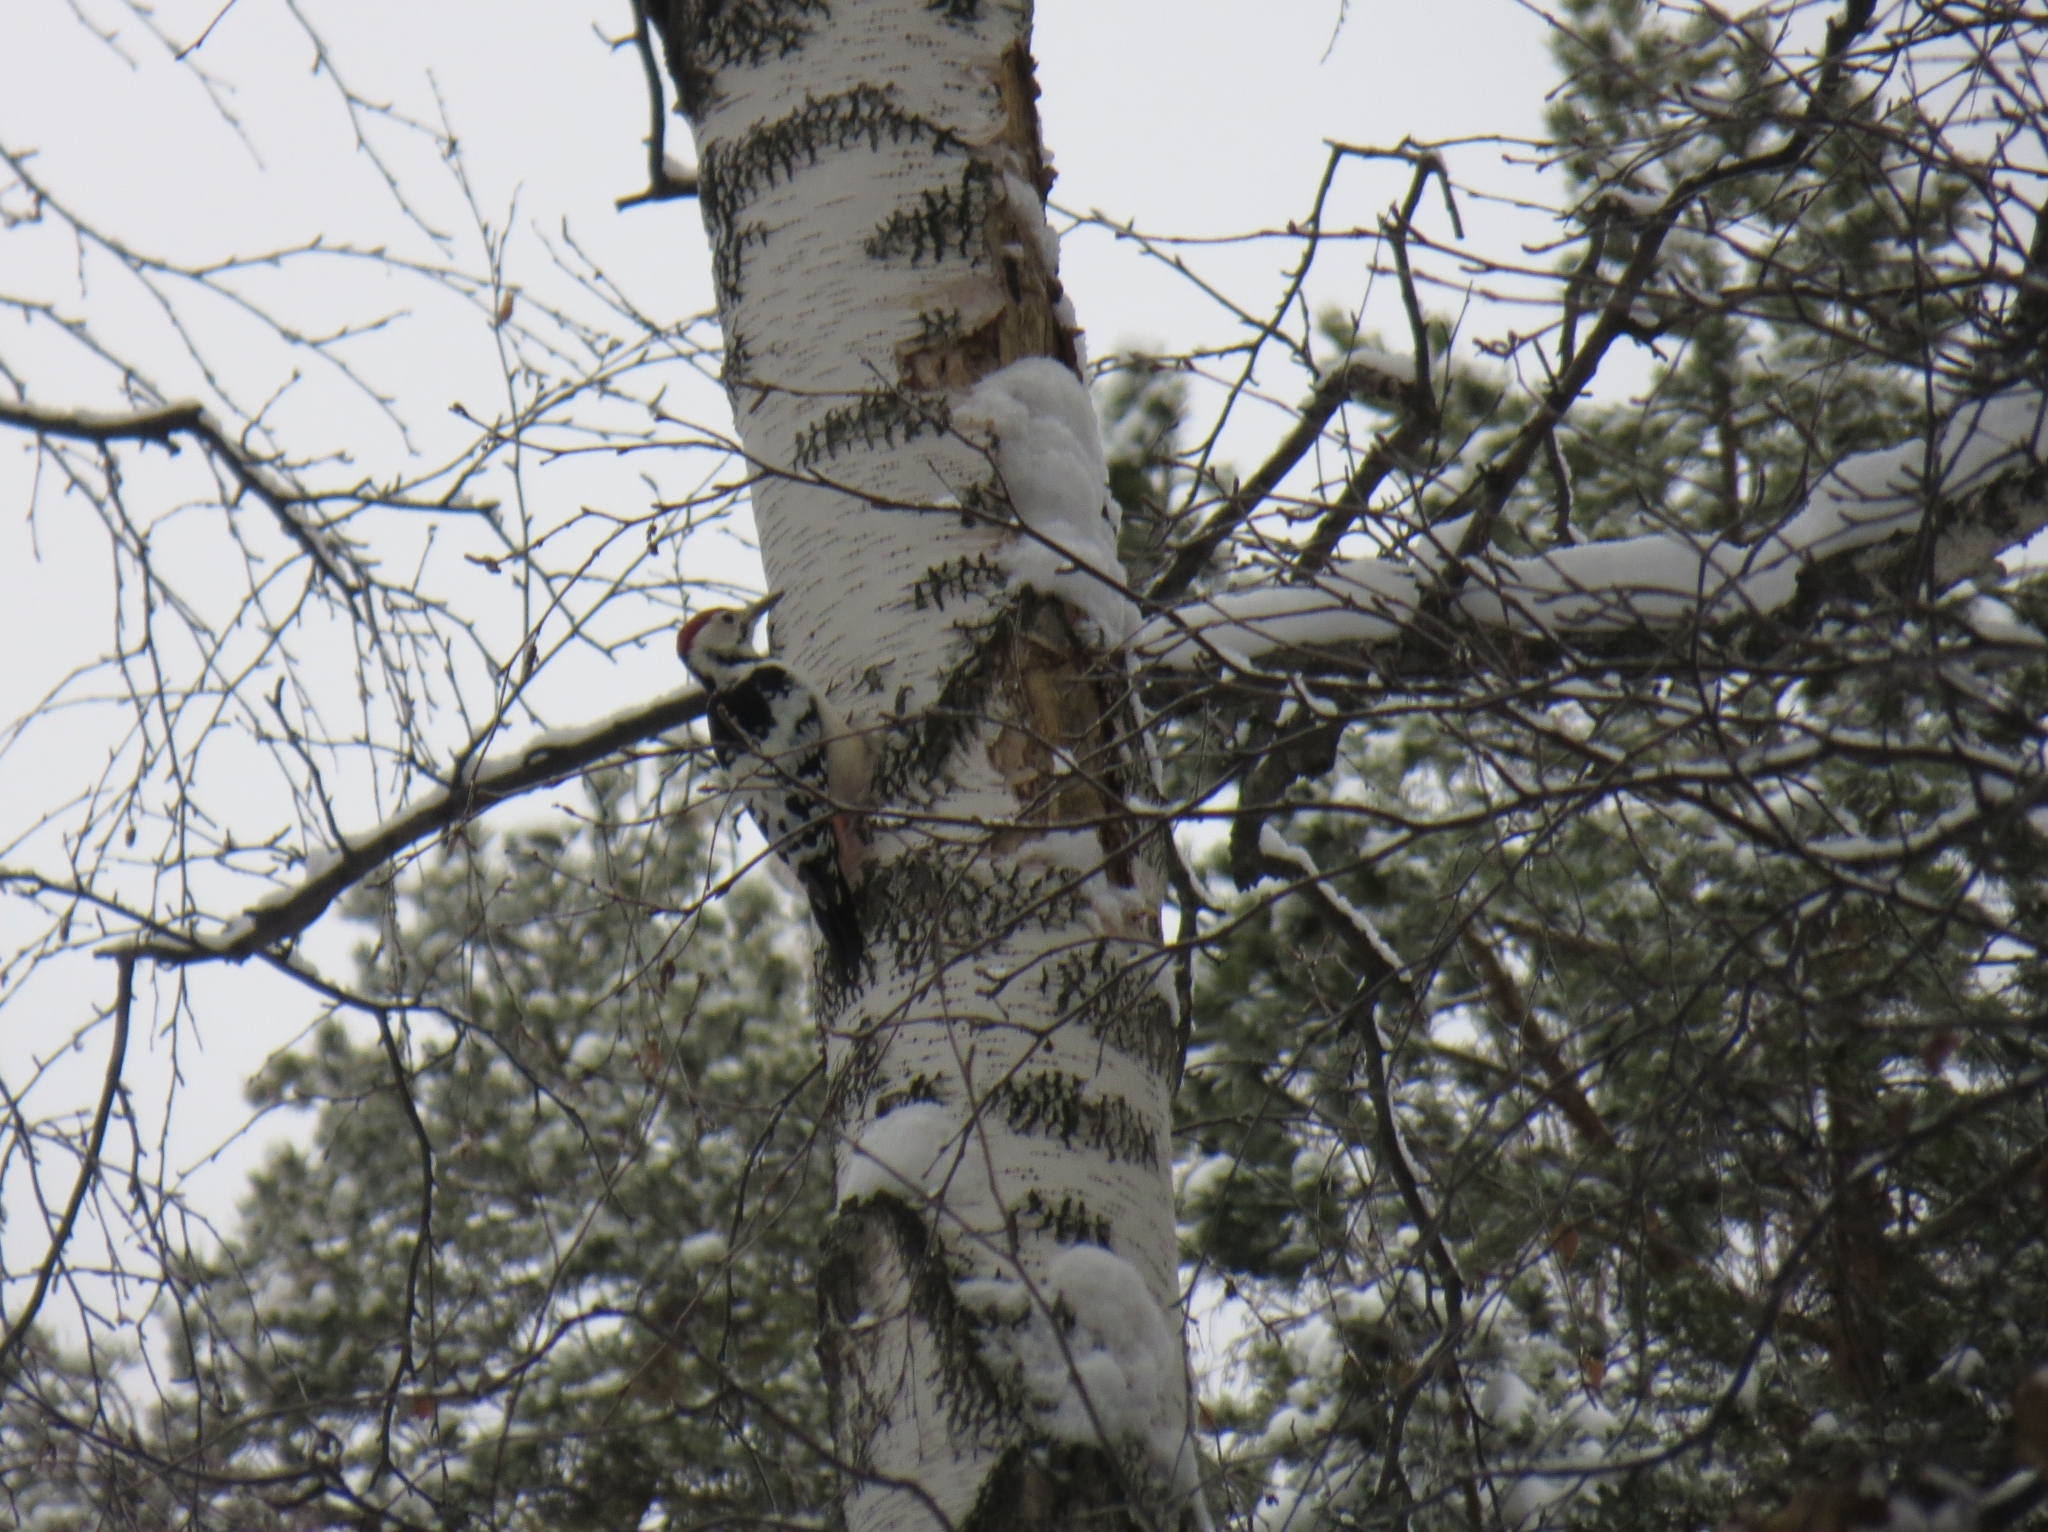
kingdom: Animalia
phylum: Chordata
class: Aves
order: Piciformes
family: Picidae
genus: Dendrocopos
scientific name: Dendrocopos leucotos
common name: White-backed woodpecker
